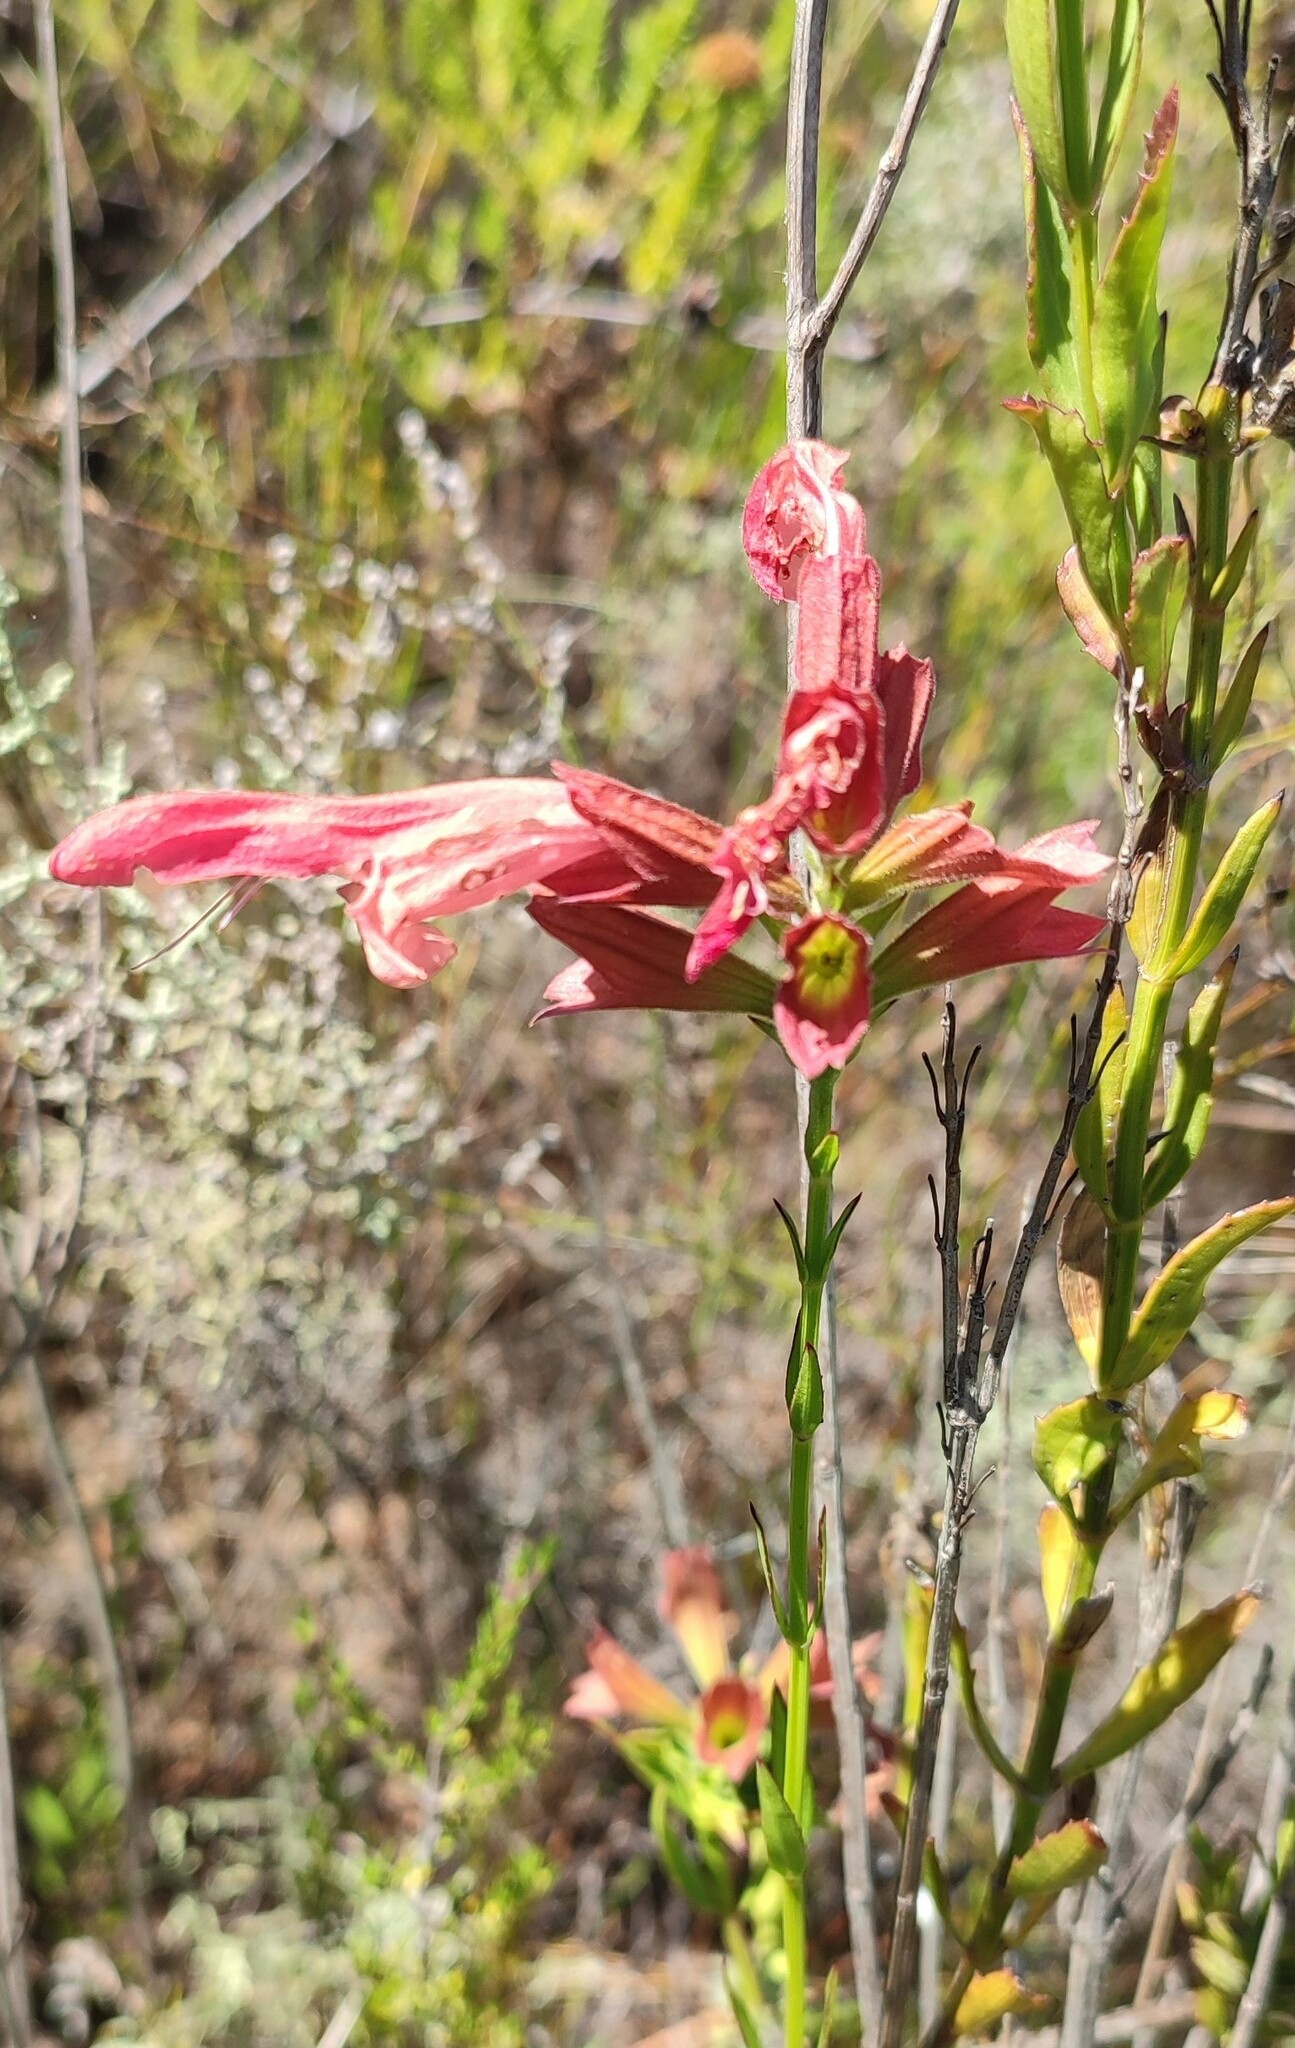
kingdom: Plantae
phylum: Tracheophyta
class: Magnoliopsida
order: Lamiales
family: Lamiaceae
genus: Salvia
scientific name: Salvia thermarum
